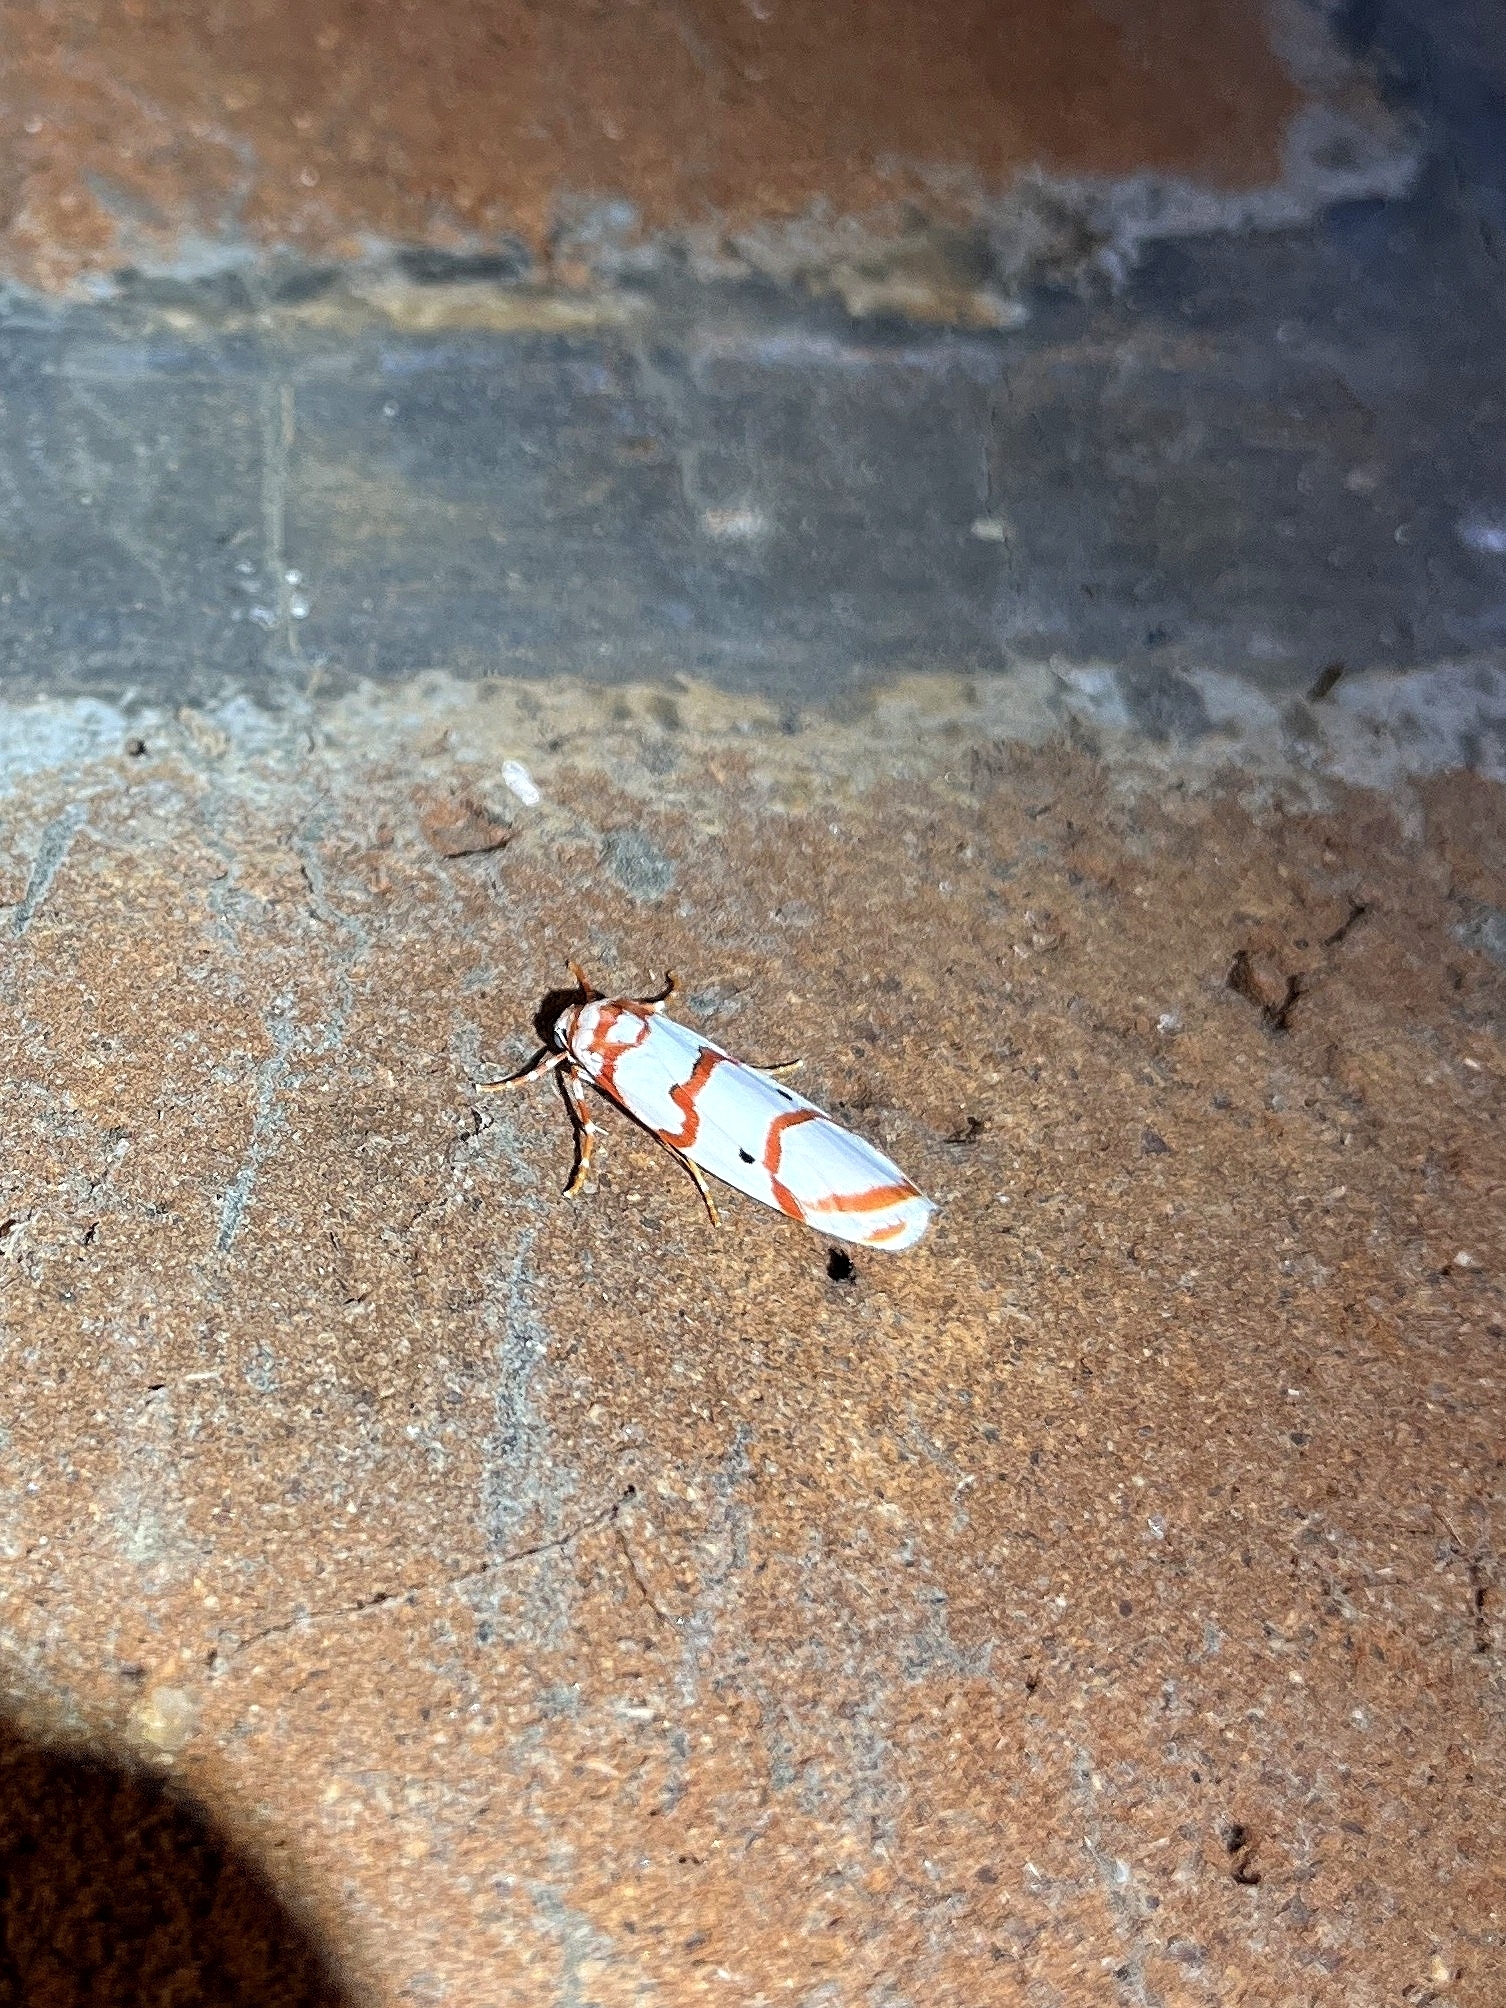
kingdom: Animalia
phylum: Arthropoda
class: Insecta
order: Lepidoptera
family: Erebidae
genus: Cyana
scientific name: Cyana puella
